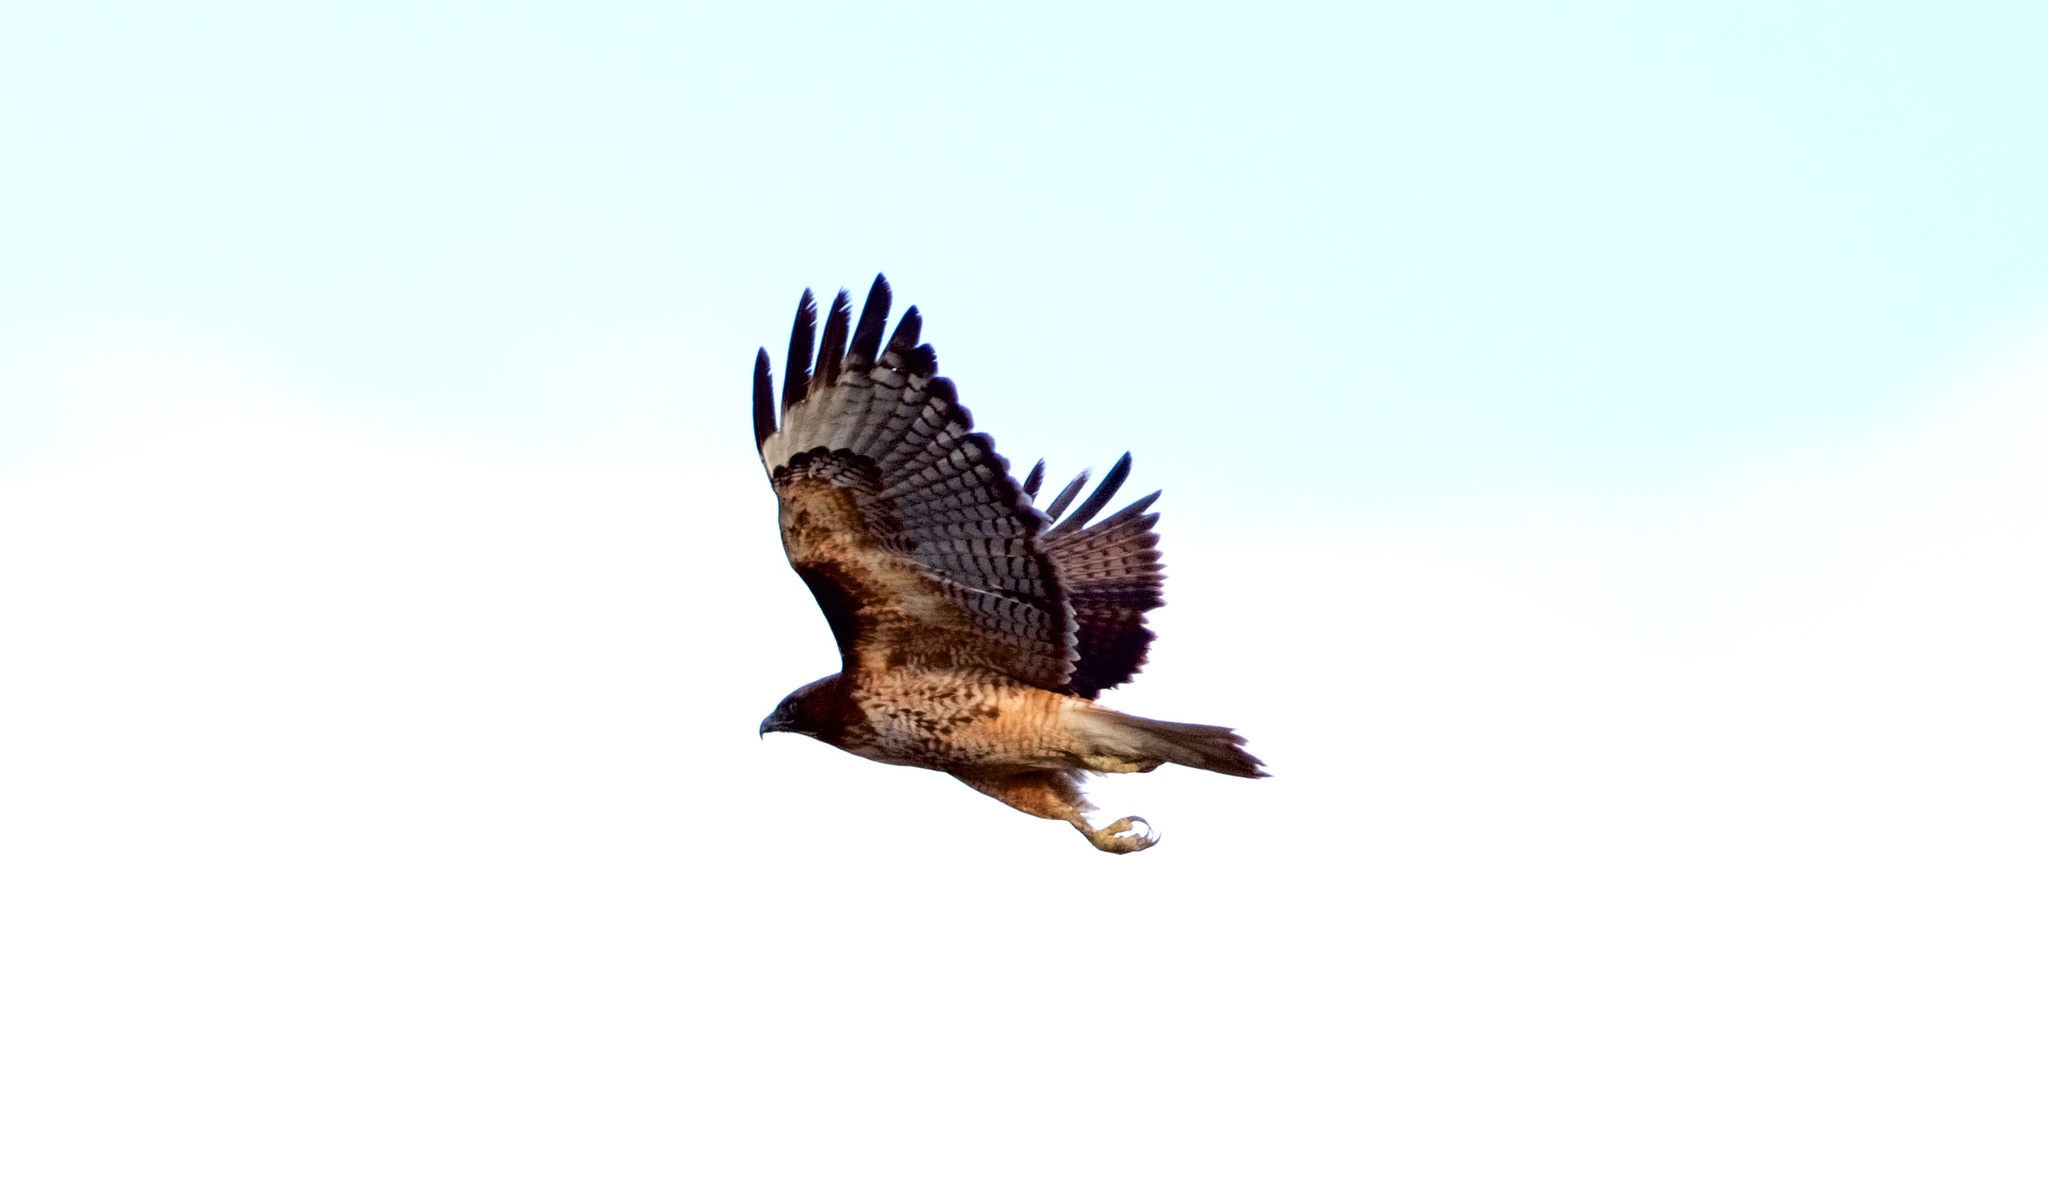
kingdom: Animalia
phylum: Chordata
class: Aves
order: Accipitriformes
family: Accipitridae
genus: Buteo
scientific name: Buteo jamaicensis
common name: Red-tailed hawk
